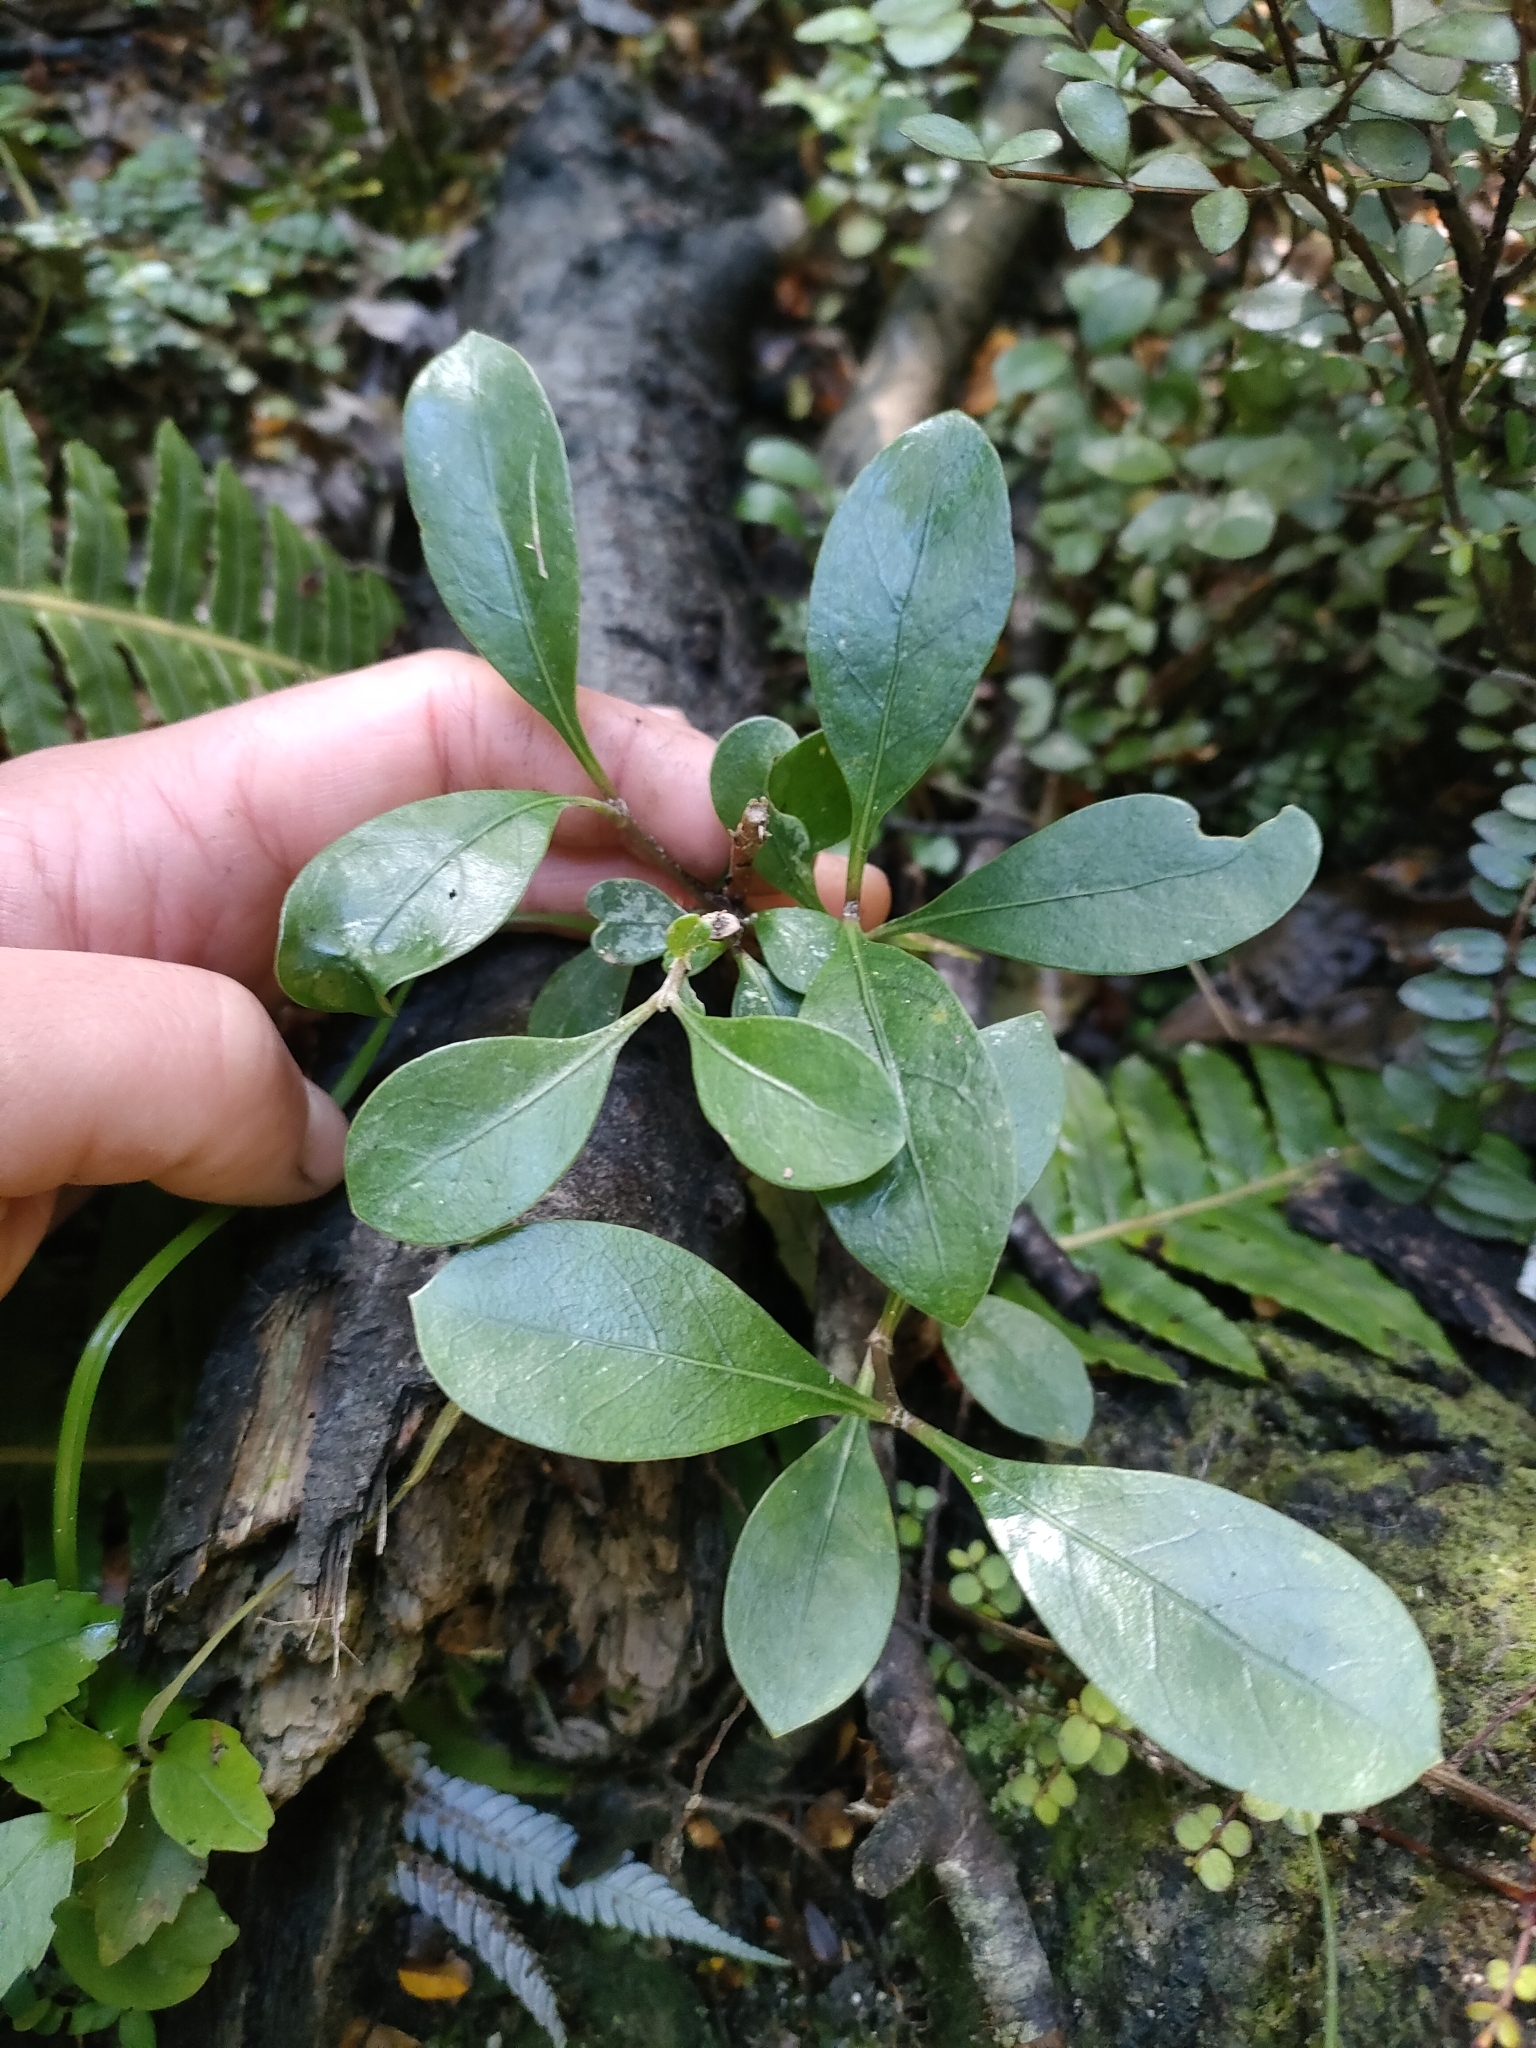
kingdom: Plantae
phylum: Tracheophyta
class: Magnoliopsida
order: Gentianales
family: Rubiaceae
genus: Coprosma
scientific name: Coprosma lucida
